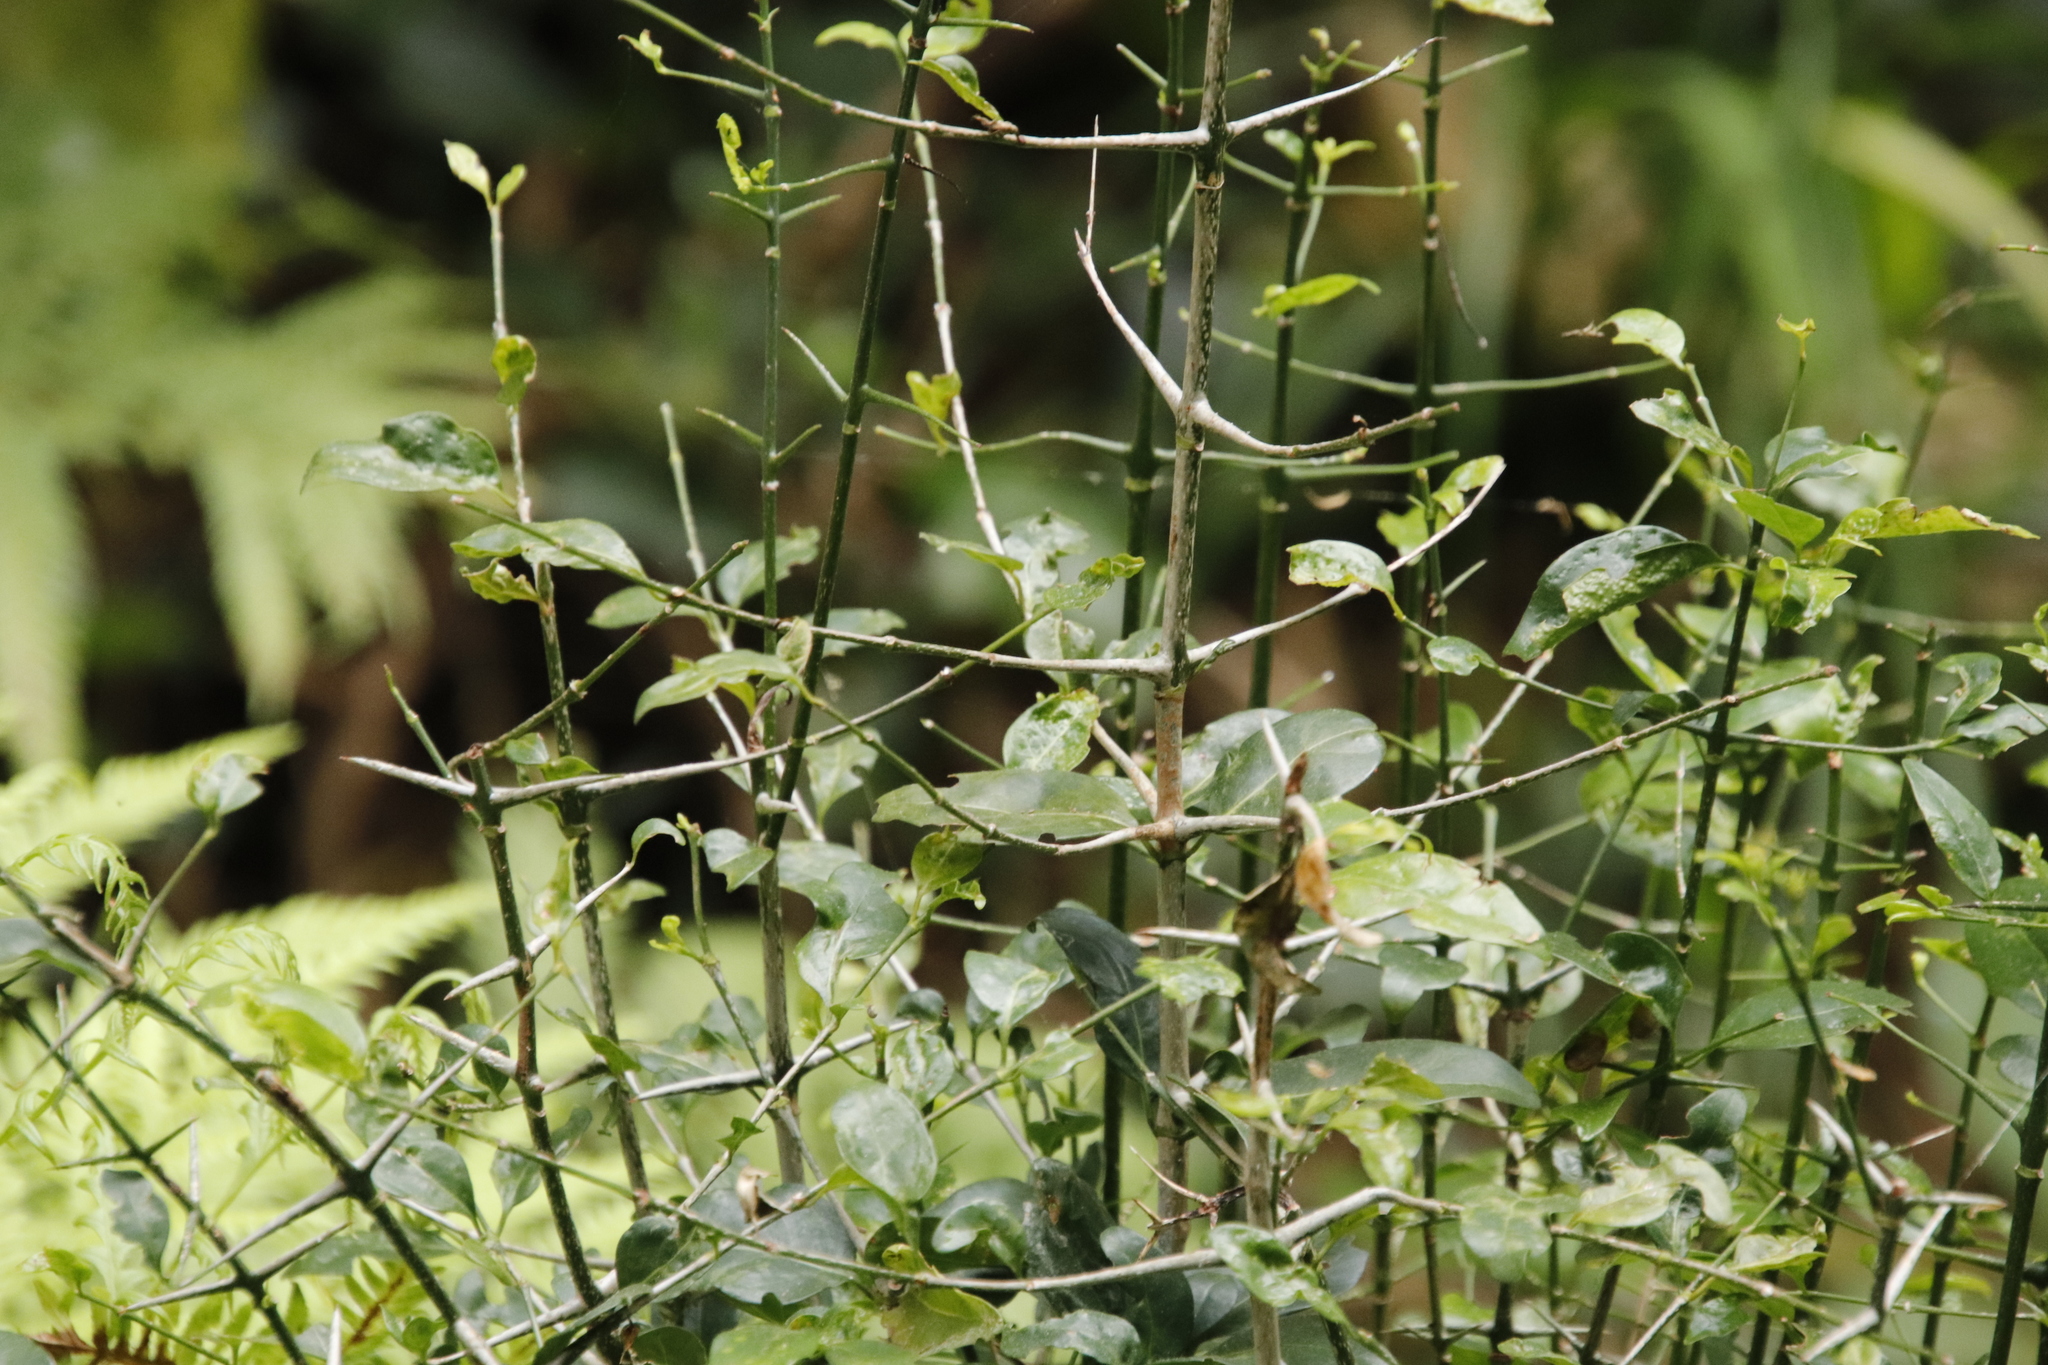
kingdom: Plantae
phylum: Tracheophyta
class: Magnoliopsida
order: Gentianales
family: Rubiaceae
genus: Canthium
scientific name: Canthium inerme
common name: Unarmed turkey-berry
